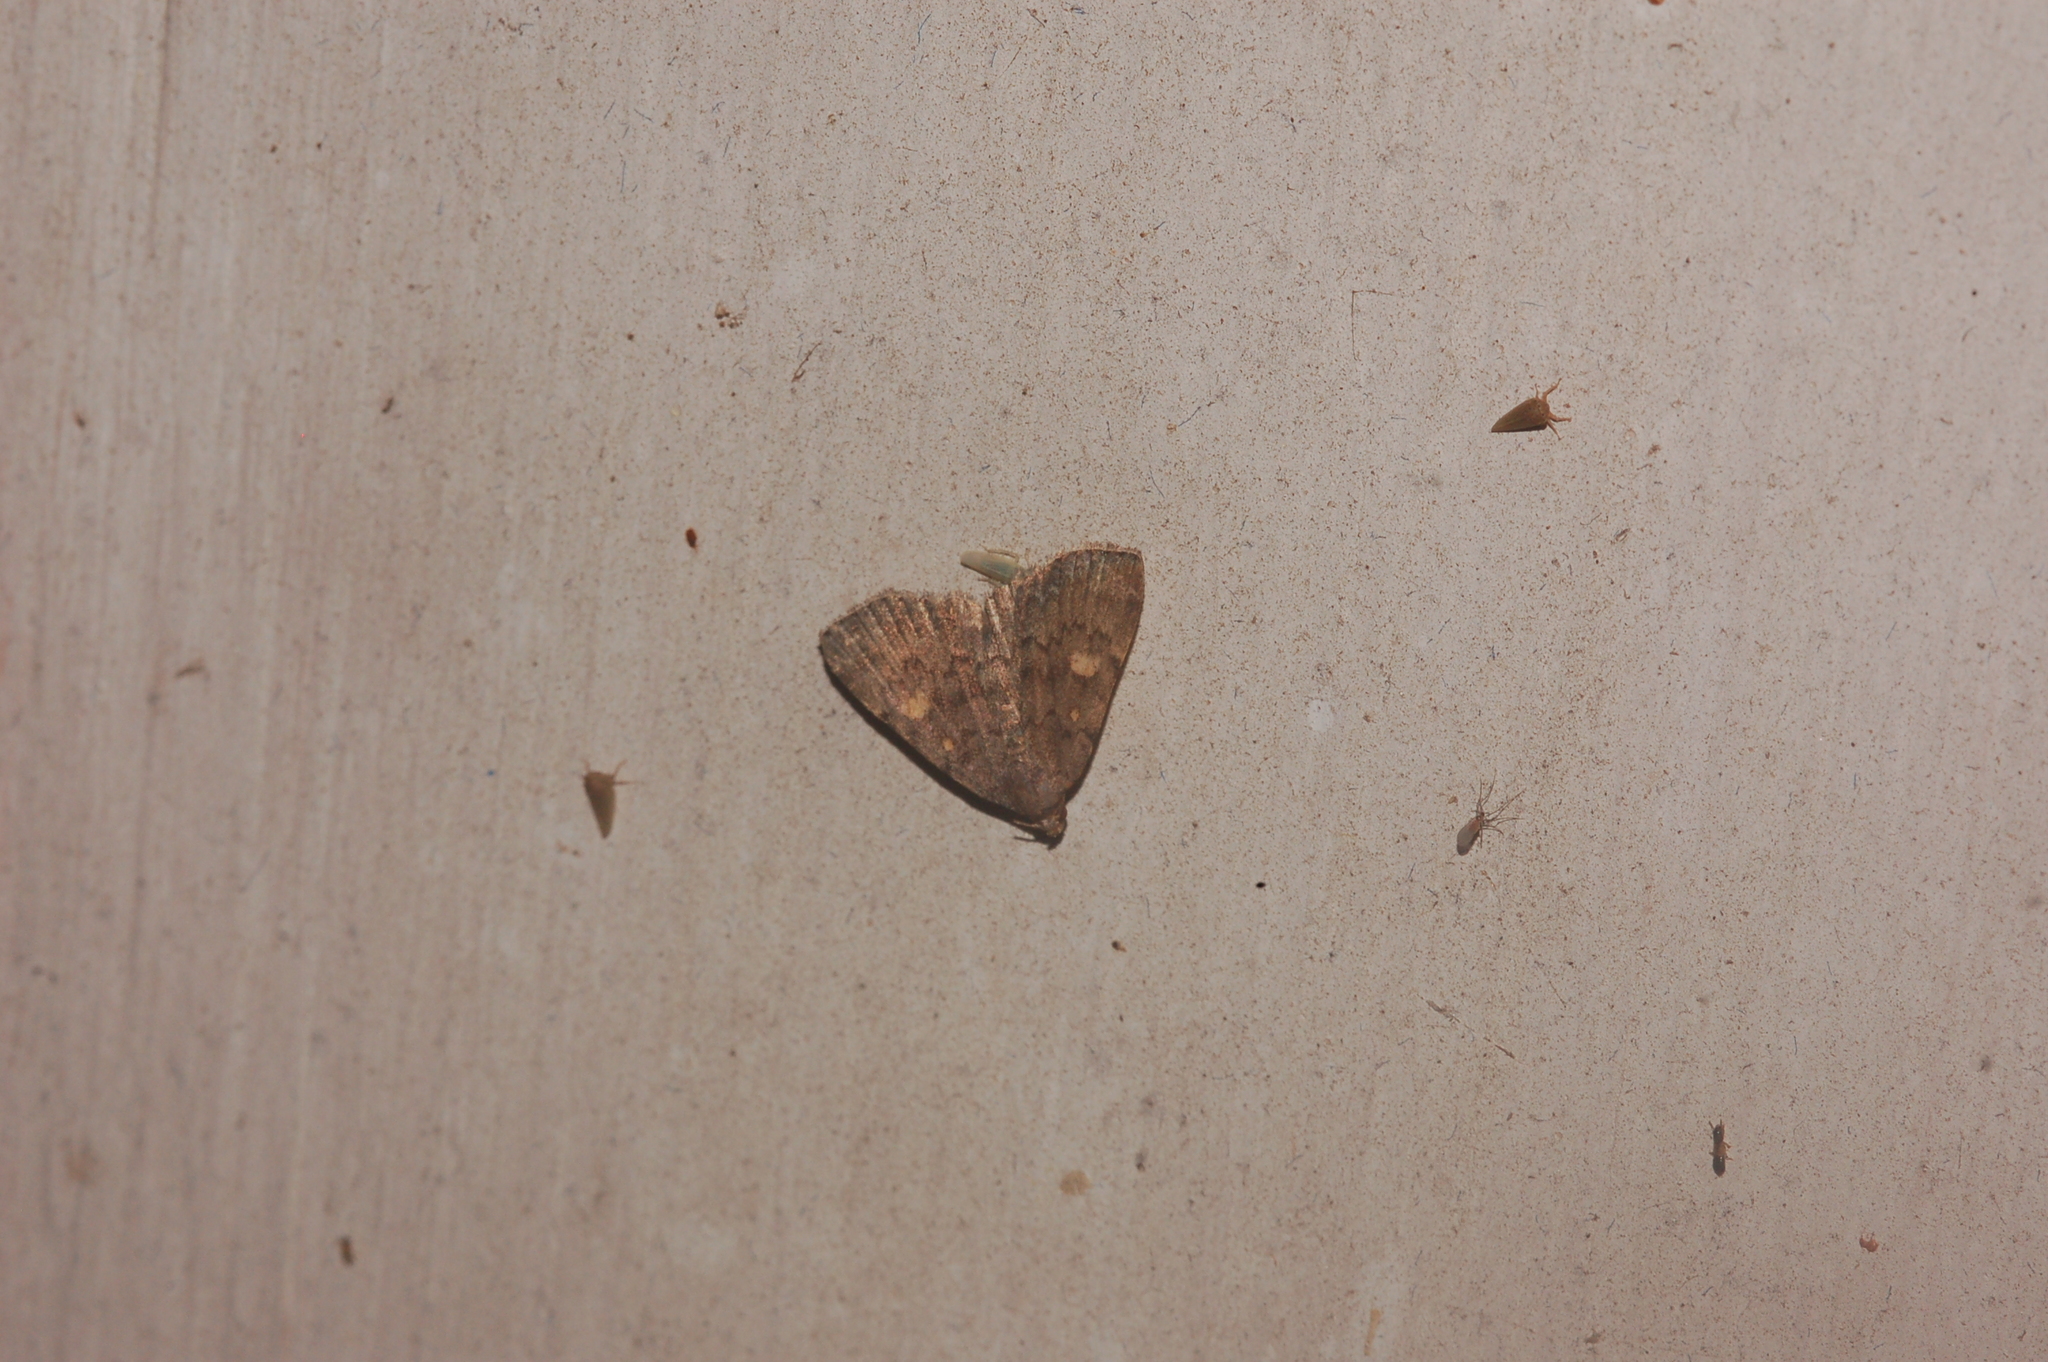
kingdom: Animalia
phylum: Arthropoda
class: Insecta
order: Lepidoptera
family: Erebidae
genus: Idia
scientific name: Idia aemula
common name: Common idia moth
